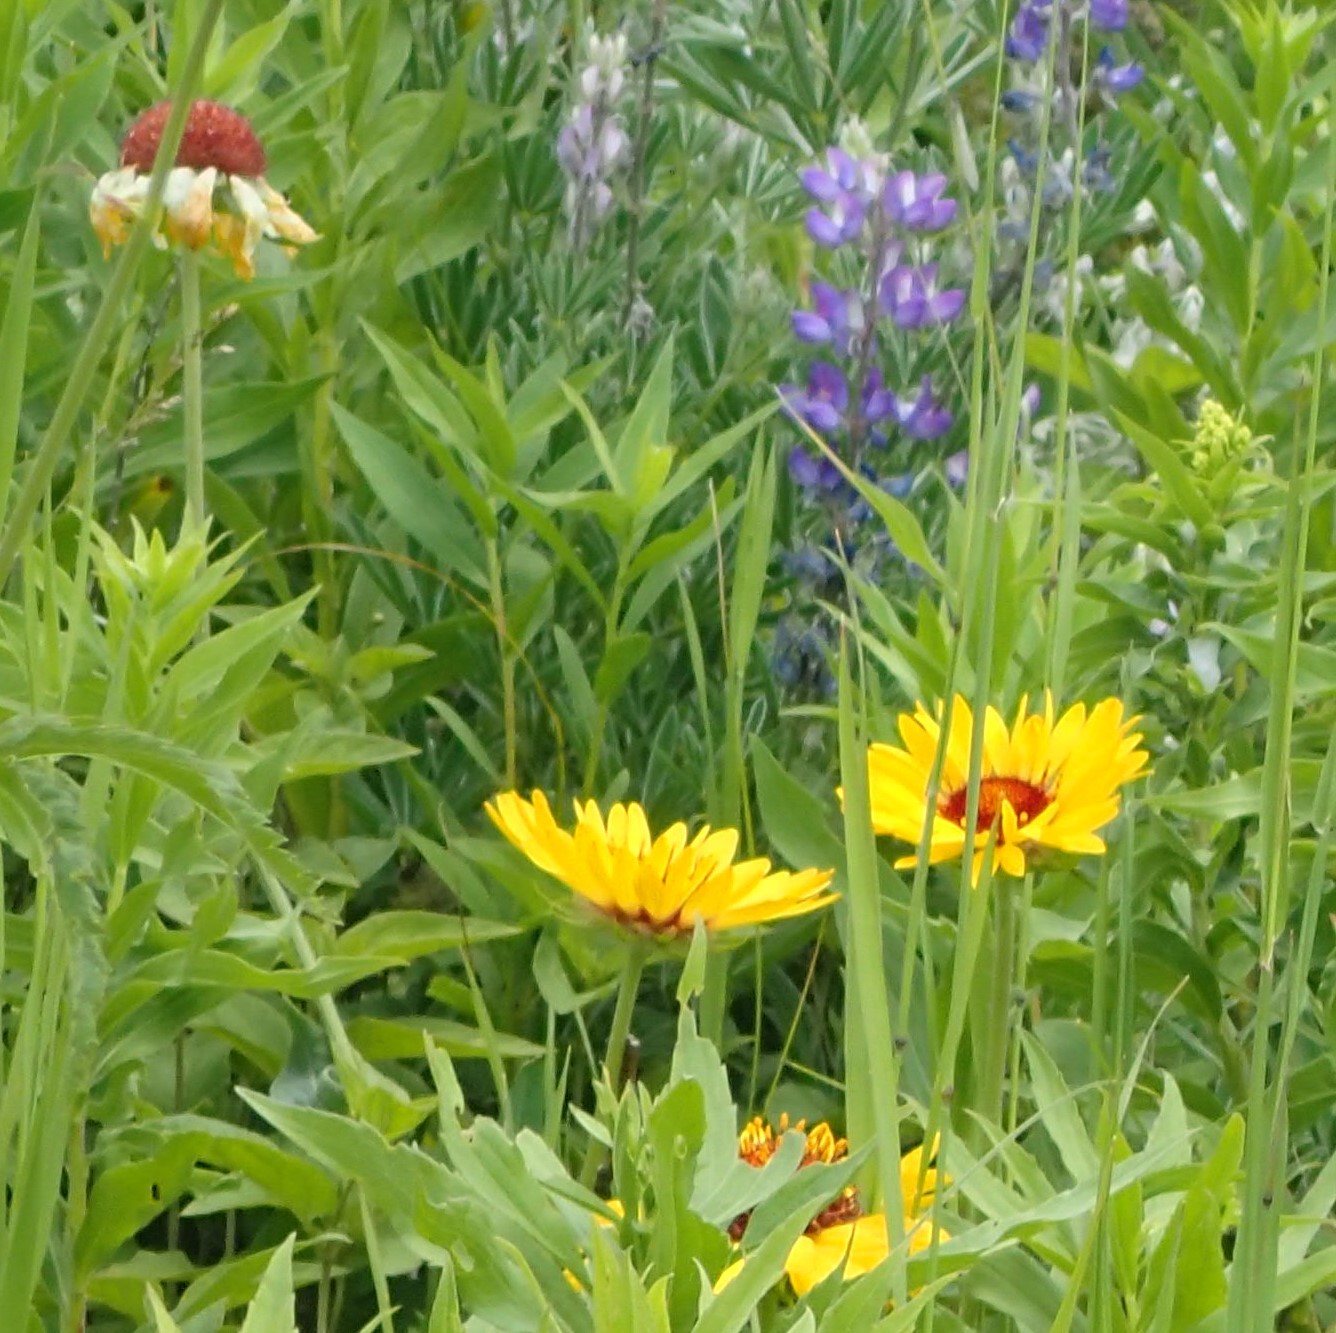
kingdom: Plantae
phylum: Tracheophyta
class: Magnoliopsida
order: Asterales
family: Asteraceae
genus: Gaillardia
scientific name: Gaillardia aristata
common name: Blanket-flower
